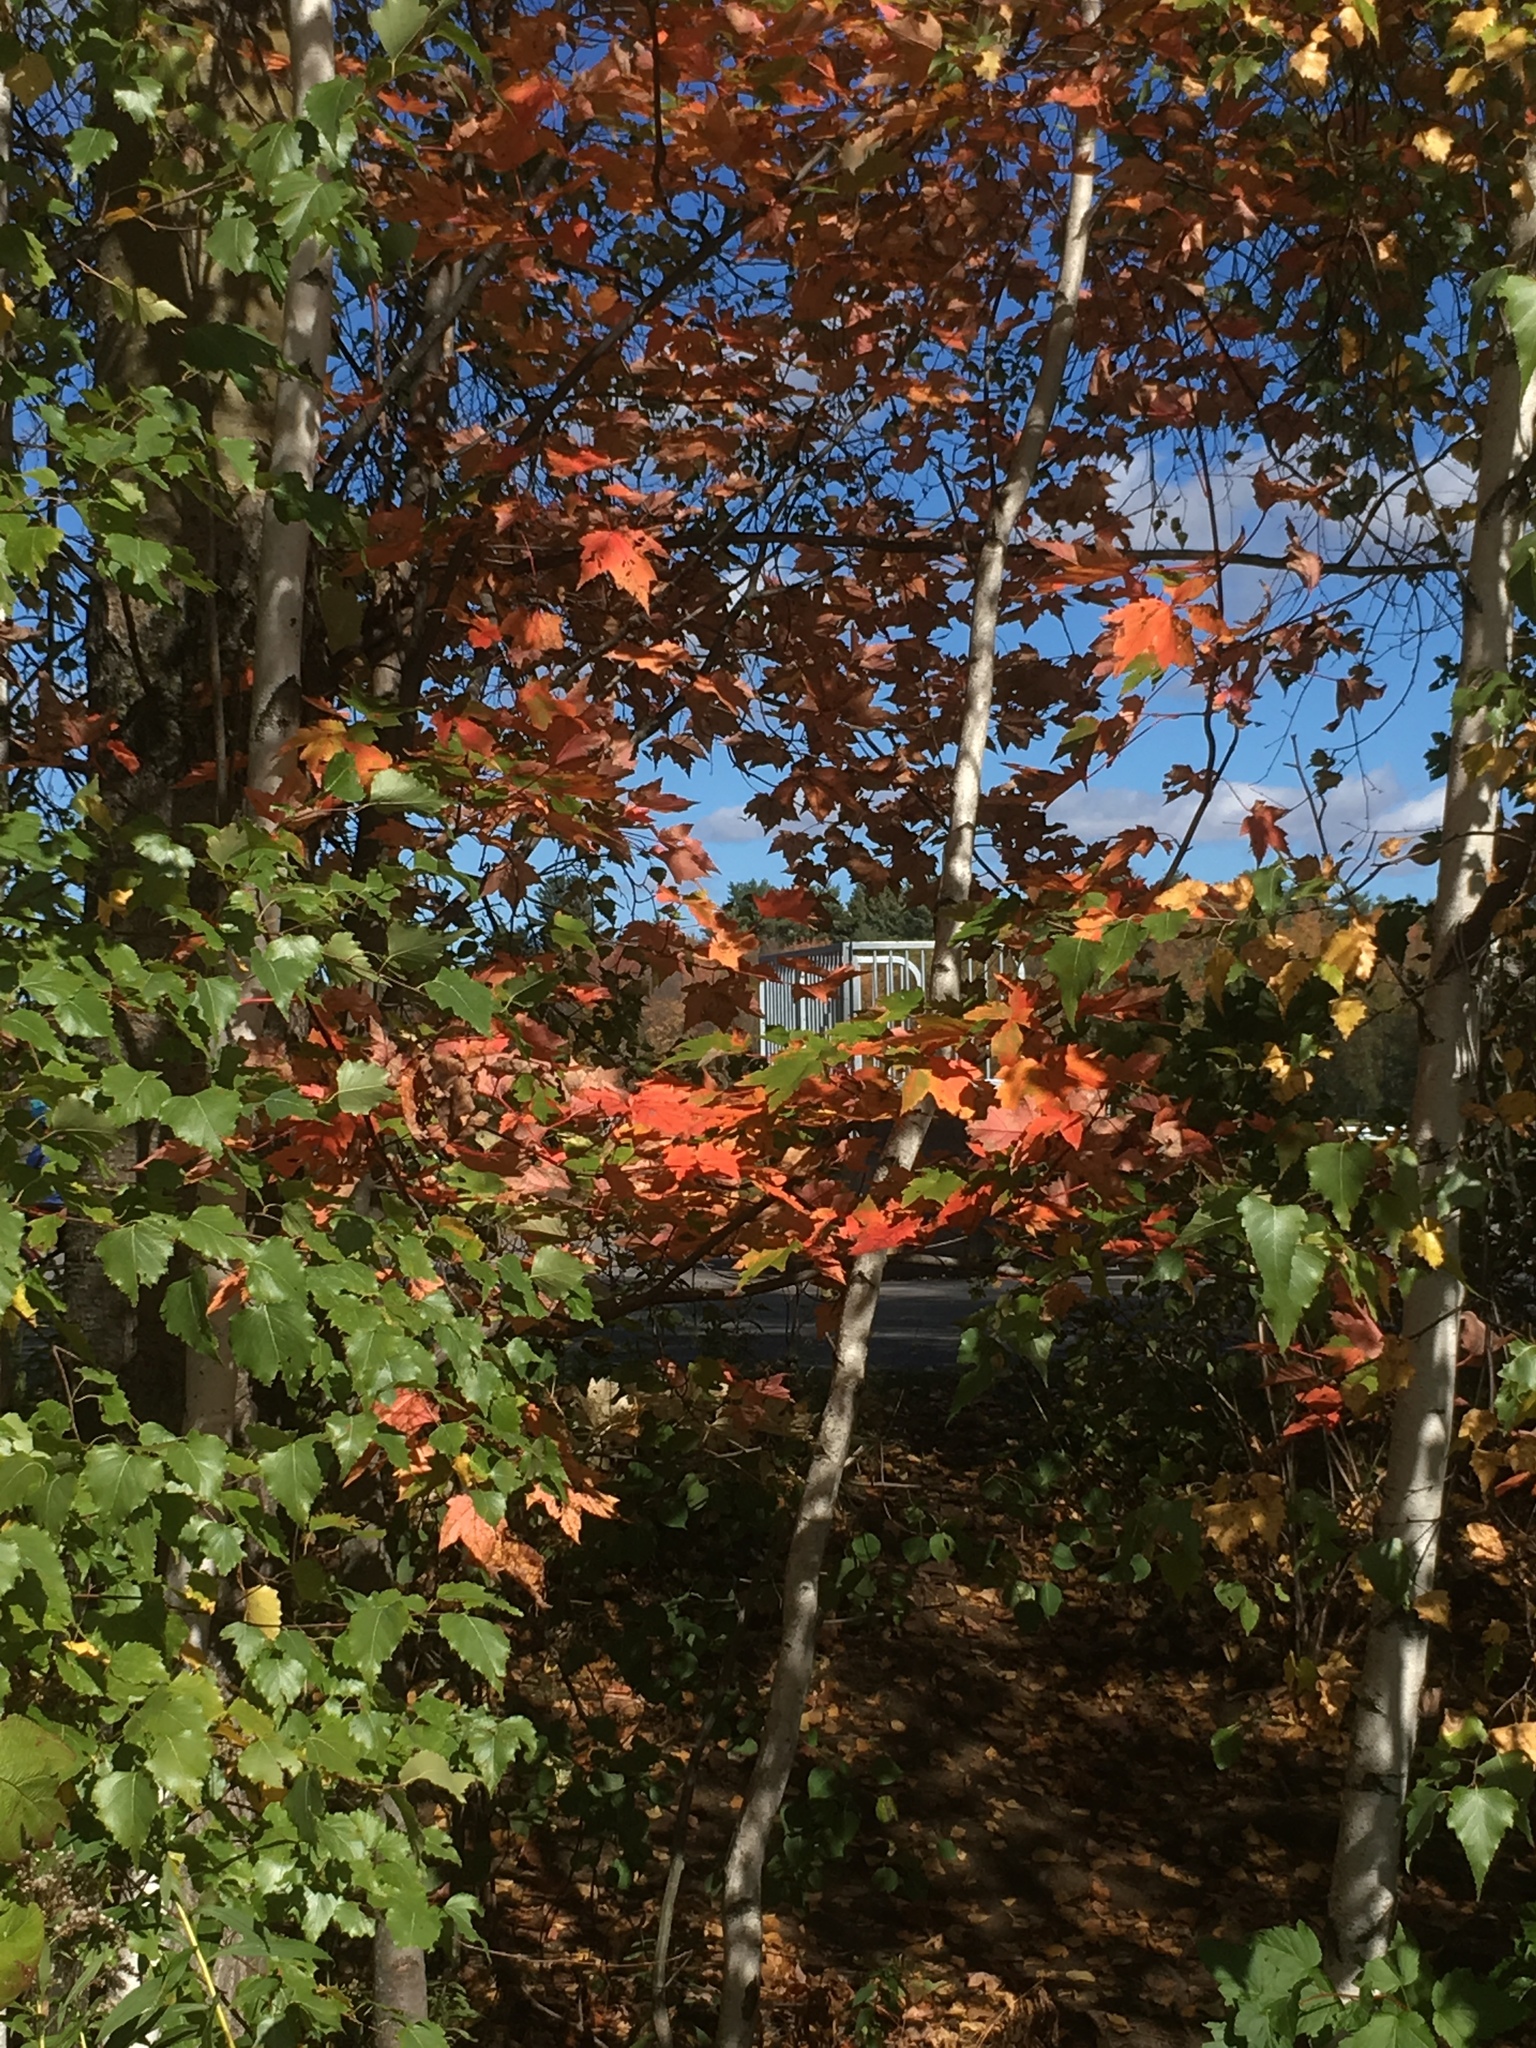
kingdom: Plantae
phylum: Tracheophyta
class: Magnoliopsida
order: Sapindales
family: Sapindaceae
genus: Acer
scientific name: Acer rubrum
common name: Red maple
